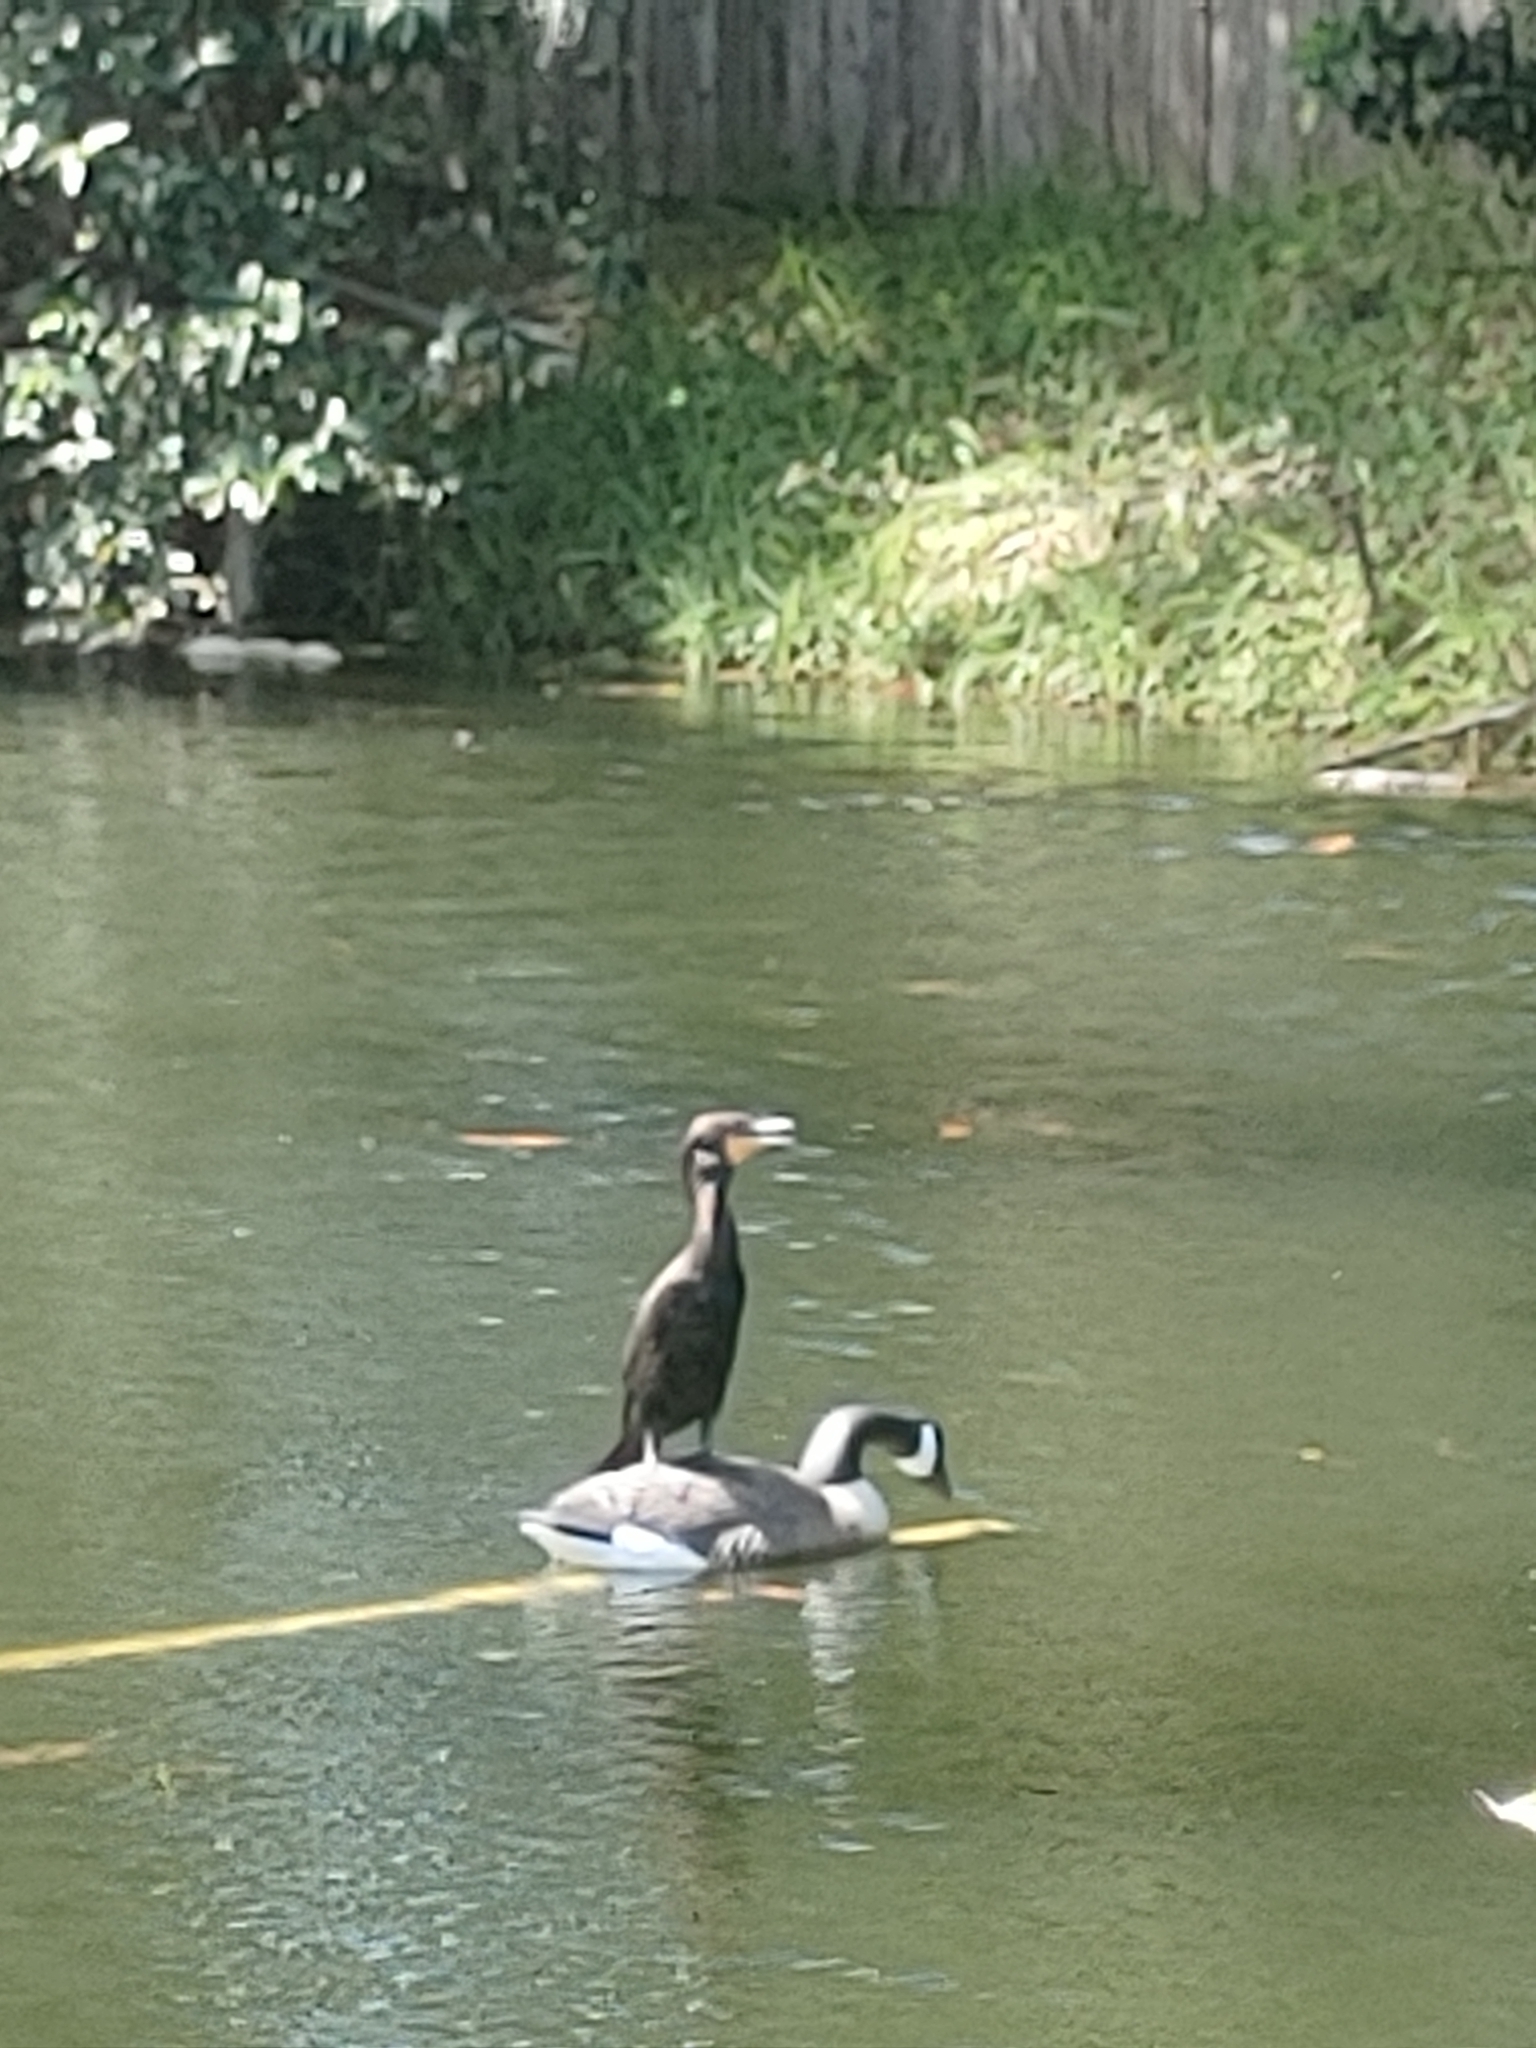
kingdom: Animalia
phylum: Chordata
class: Aves
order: Suliformes
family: Phalacrocoracidae
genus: Phalacrocorax
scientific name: Phalacrocorax auritus
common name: Double-crested cormorant
